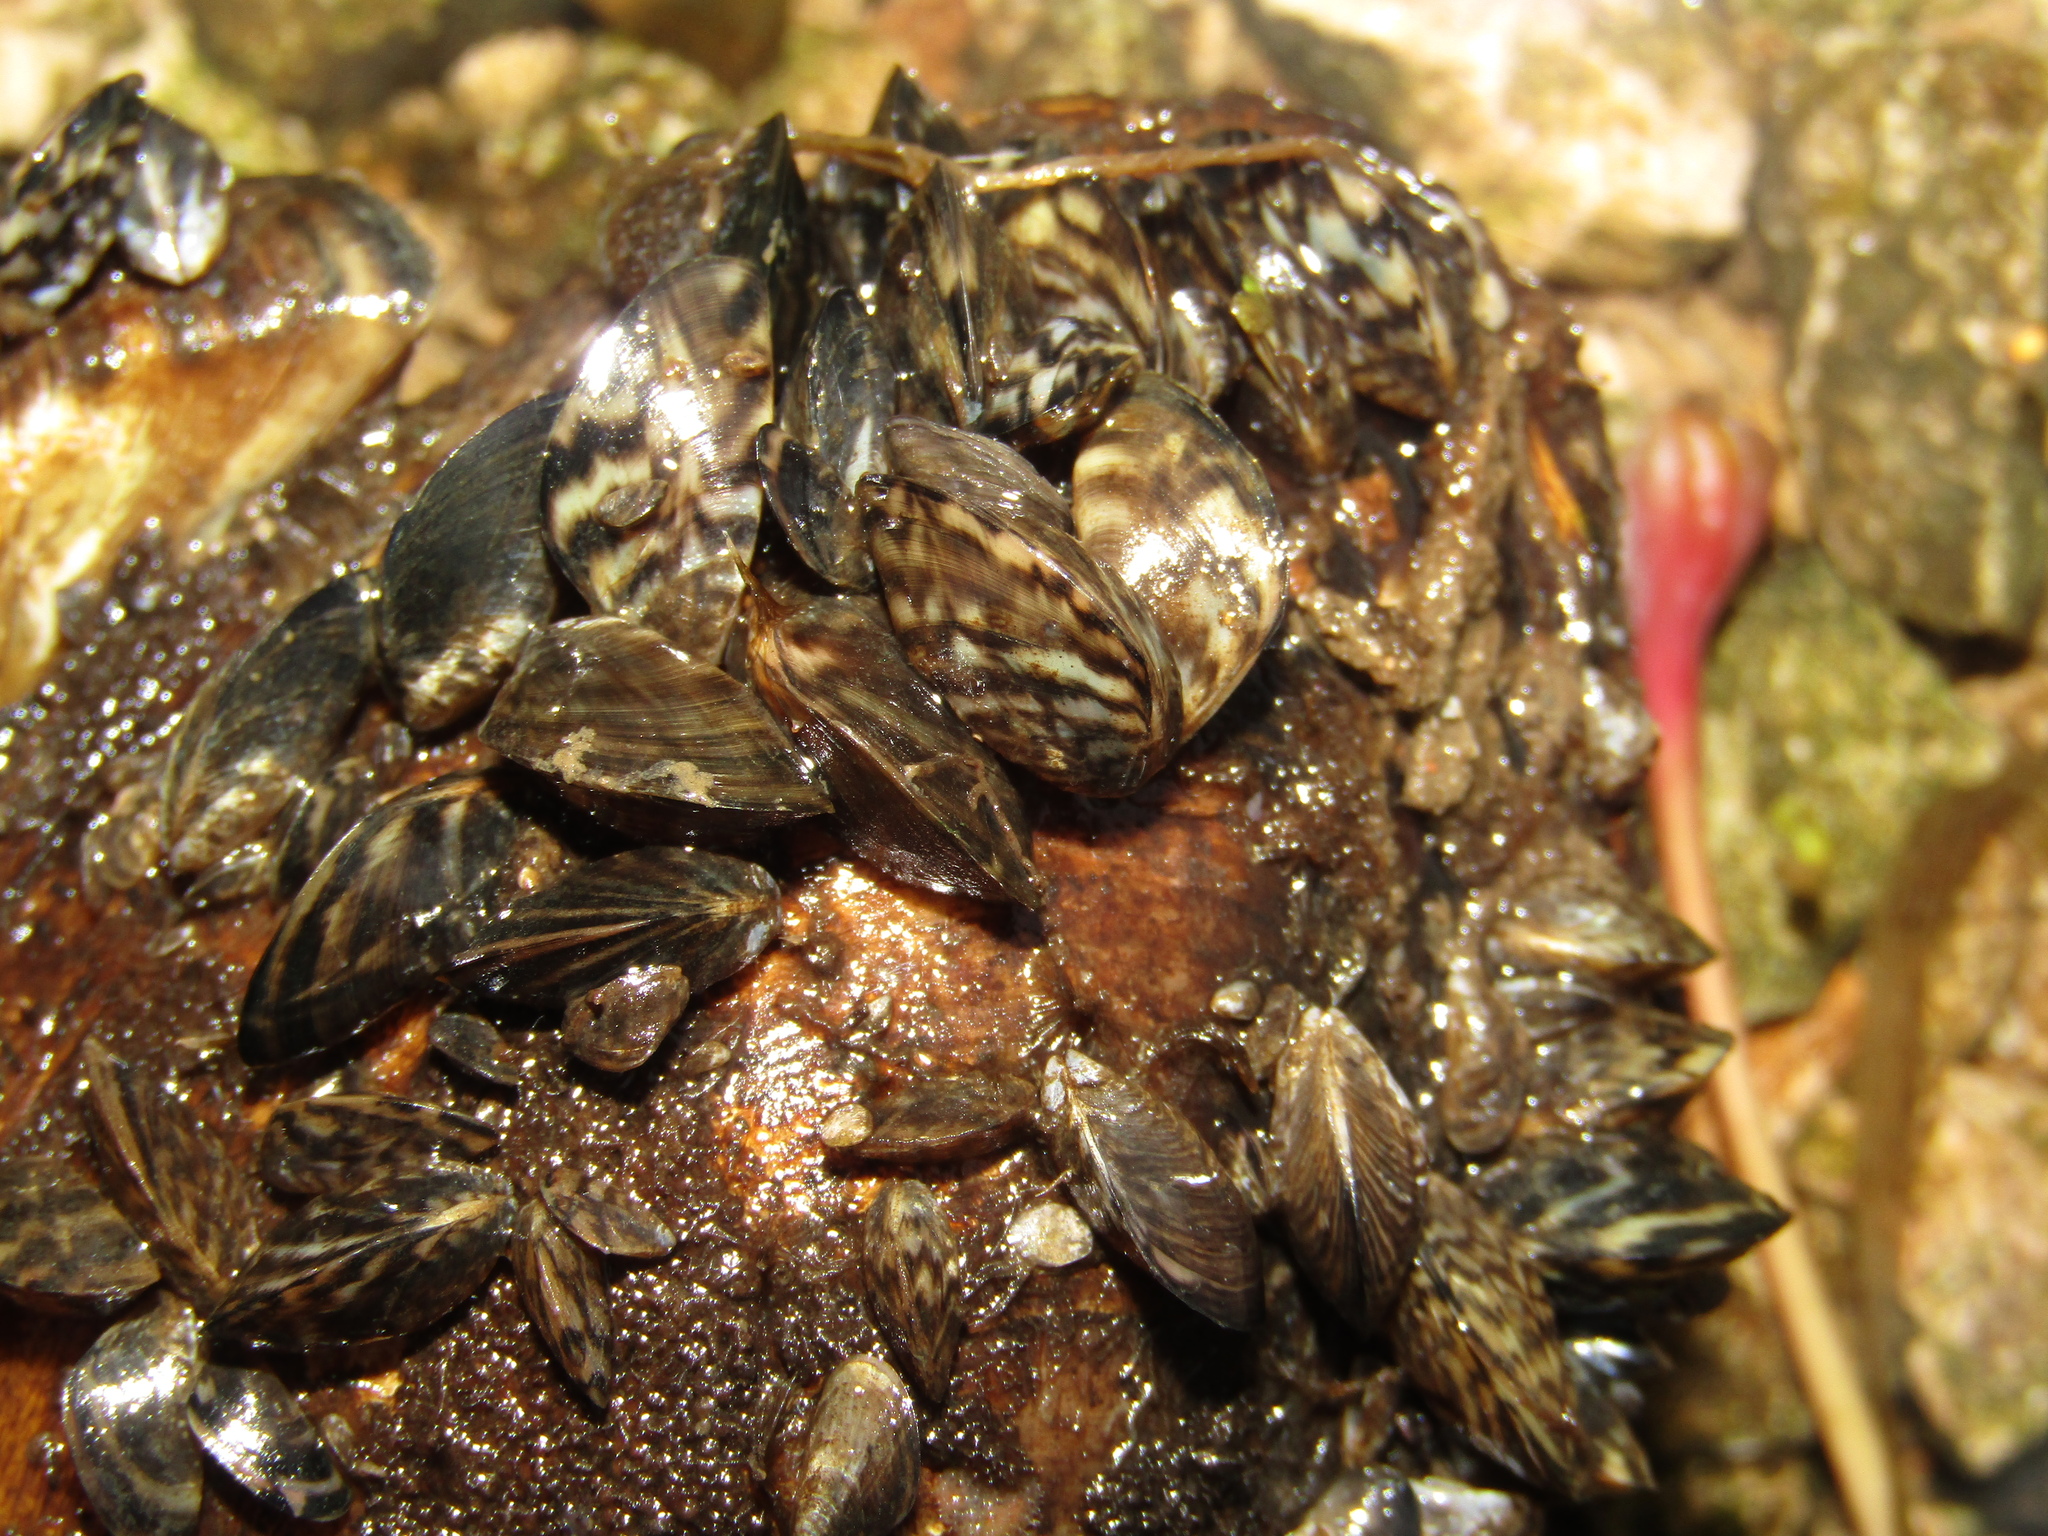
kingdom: Animalia
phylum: Mollusca
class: Bivalvia
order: Myida
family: Dreissenidae
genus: Dreissena
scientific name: Dreissena polymorpha
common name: Zebra mussel
